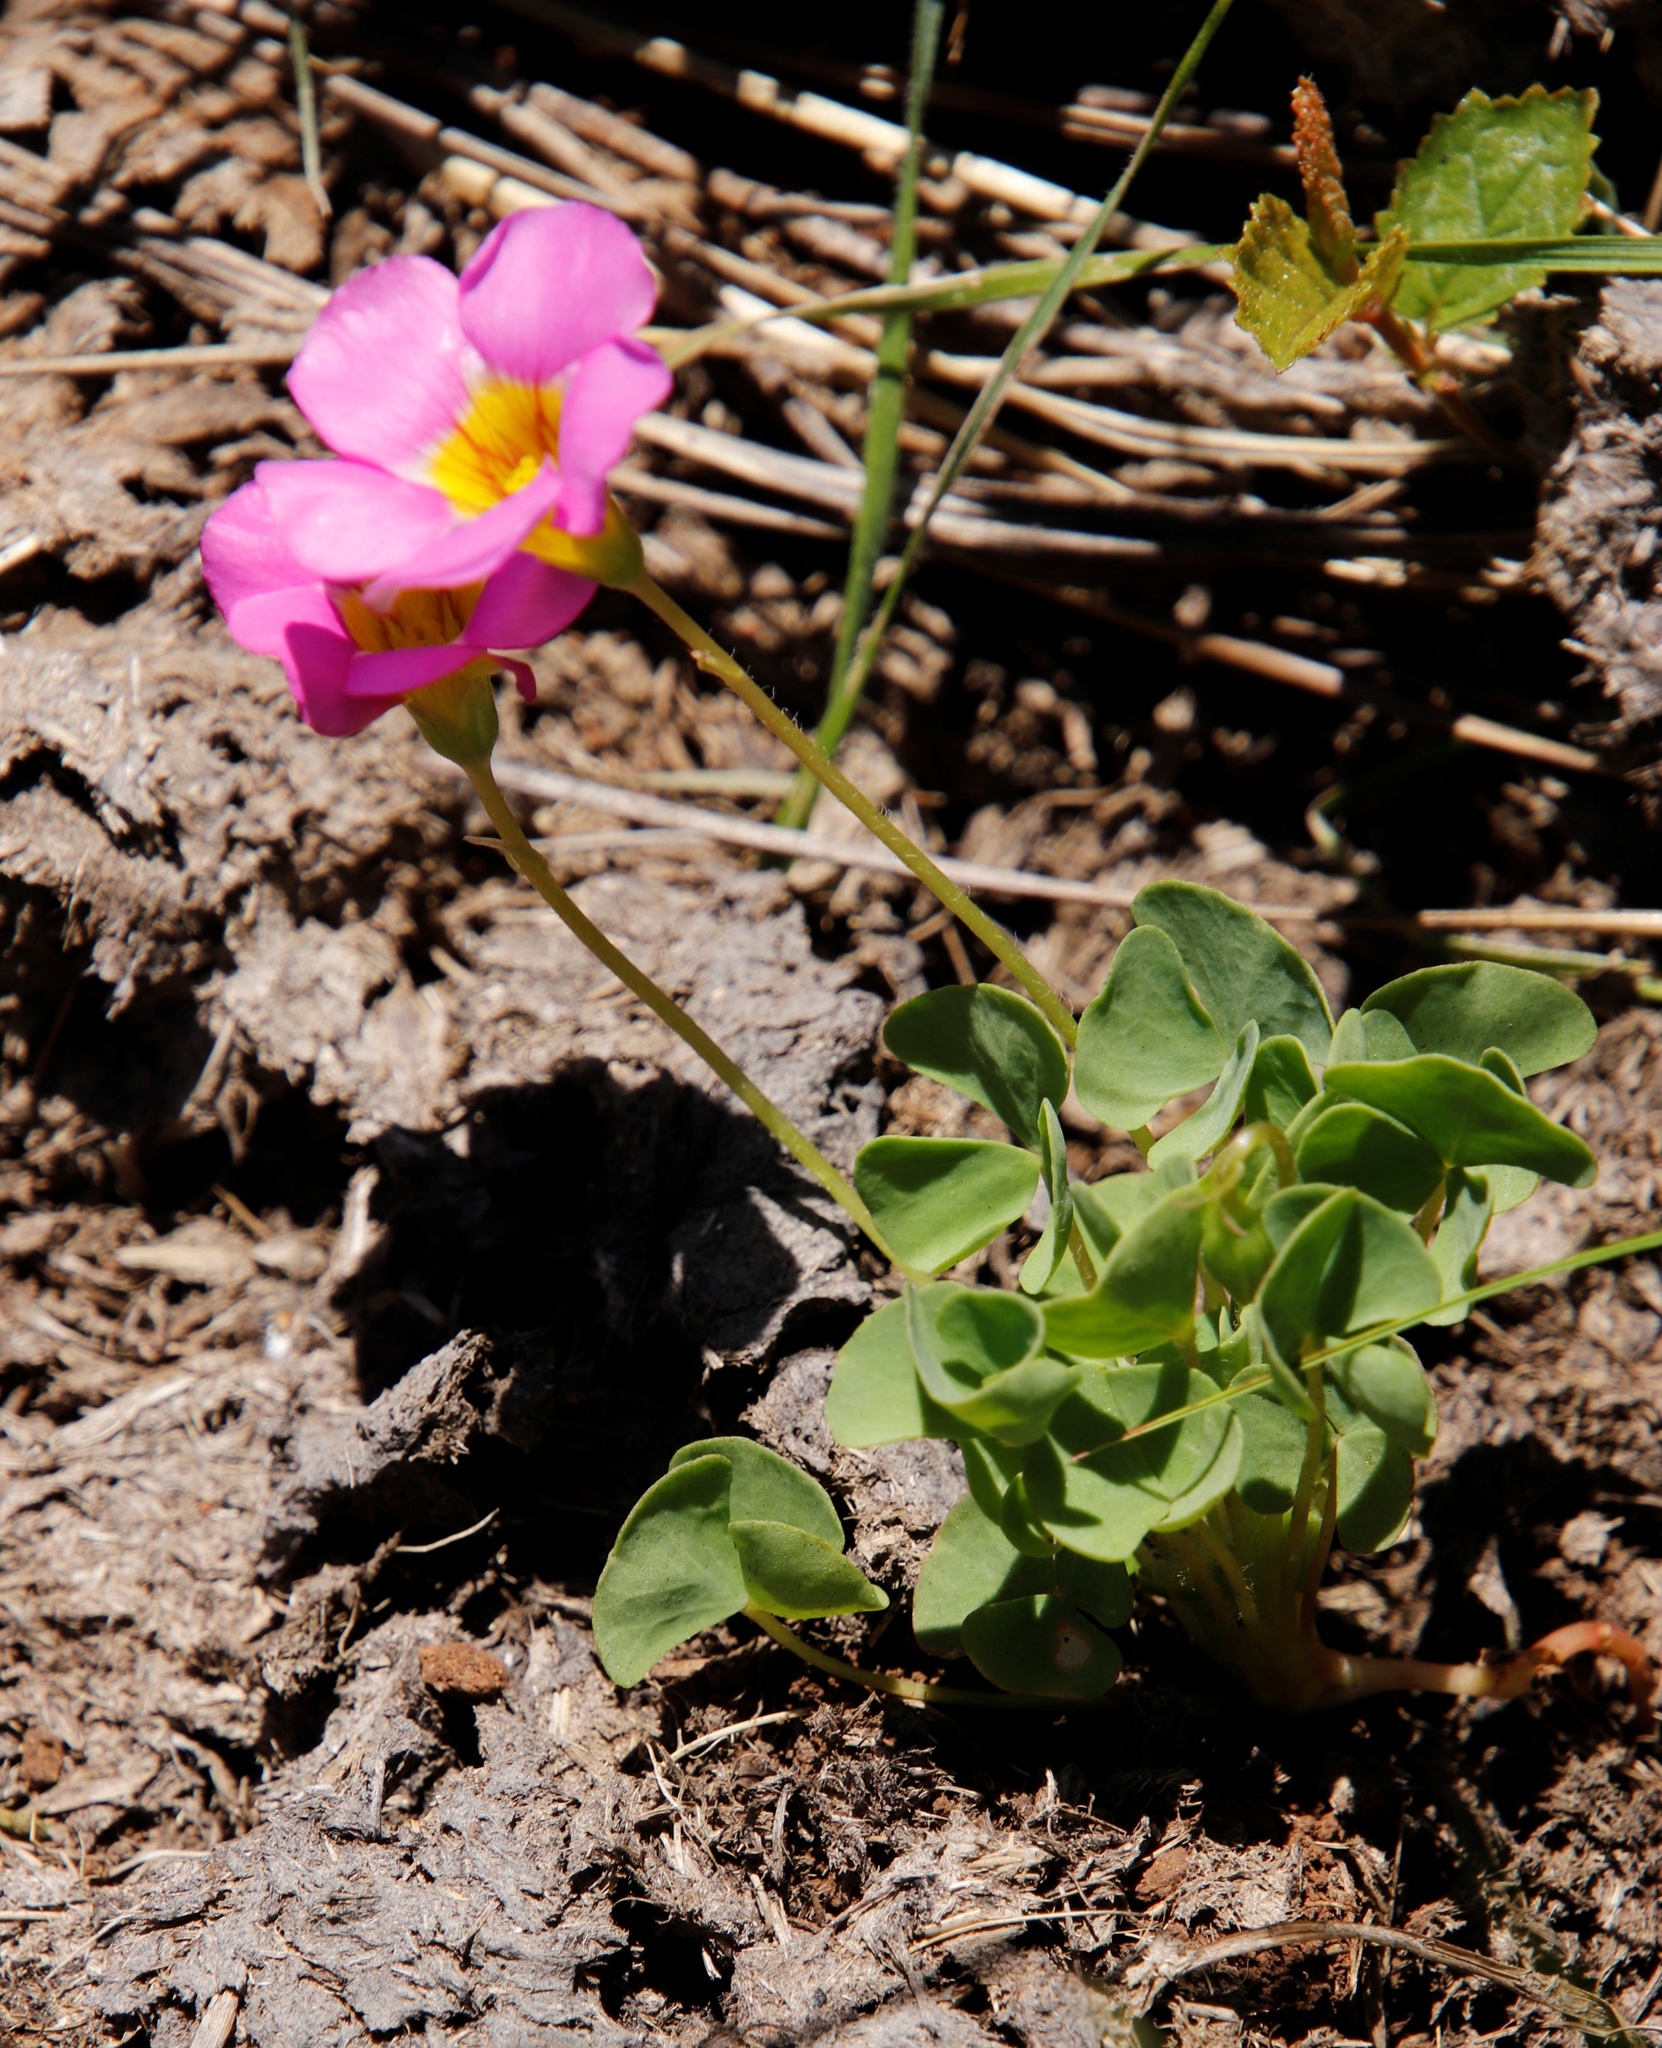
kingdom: Plantae
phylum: Tracheophyta
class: Magnoliopsida
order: Oxalidales
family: Oxalidaceae
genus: Oxalis
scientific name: Oxalis obliquifolia
